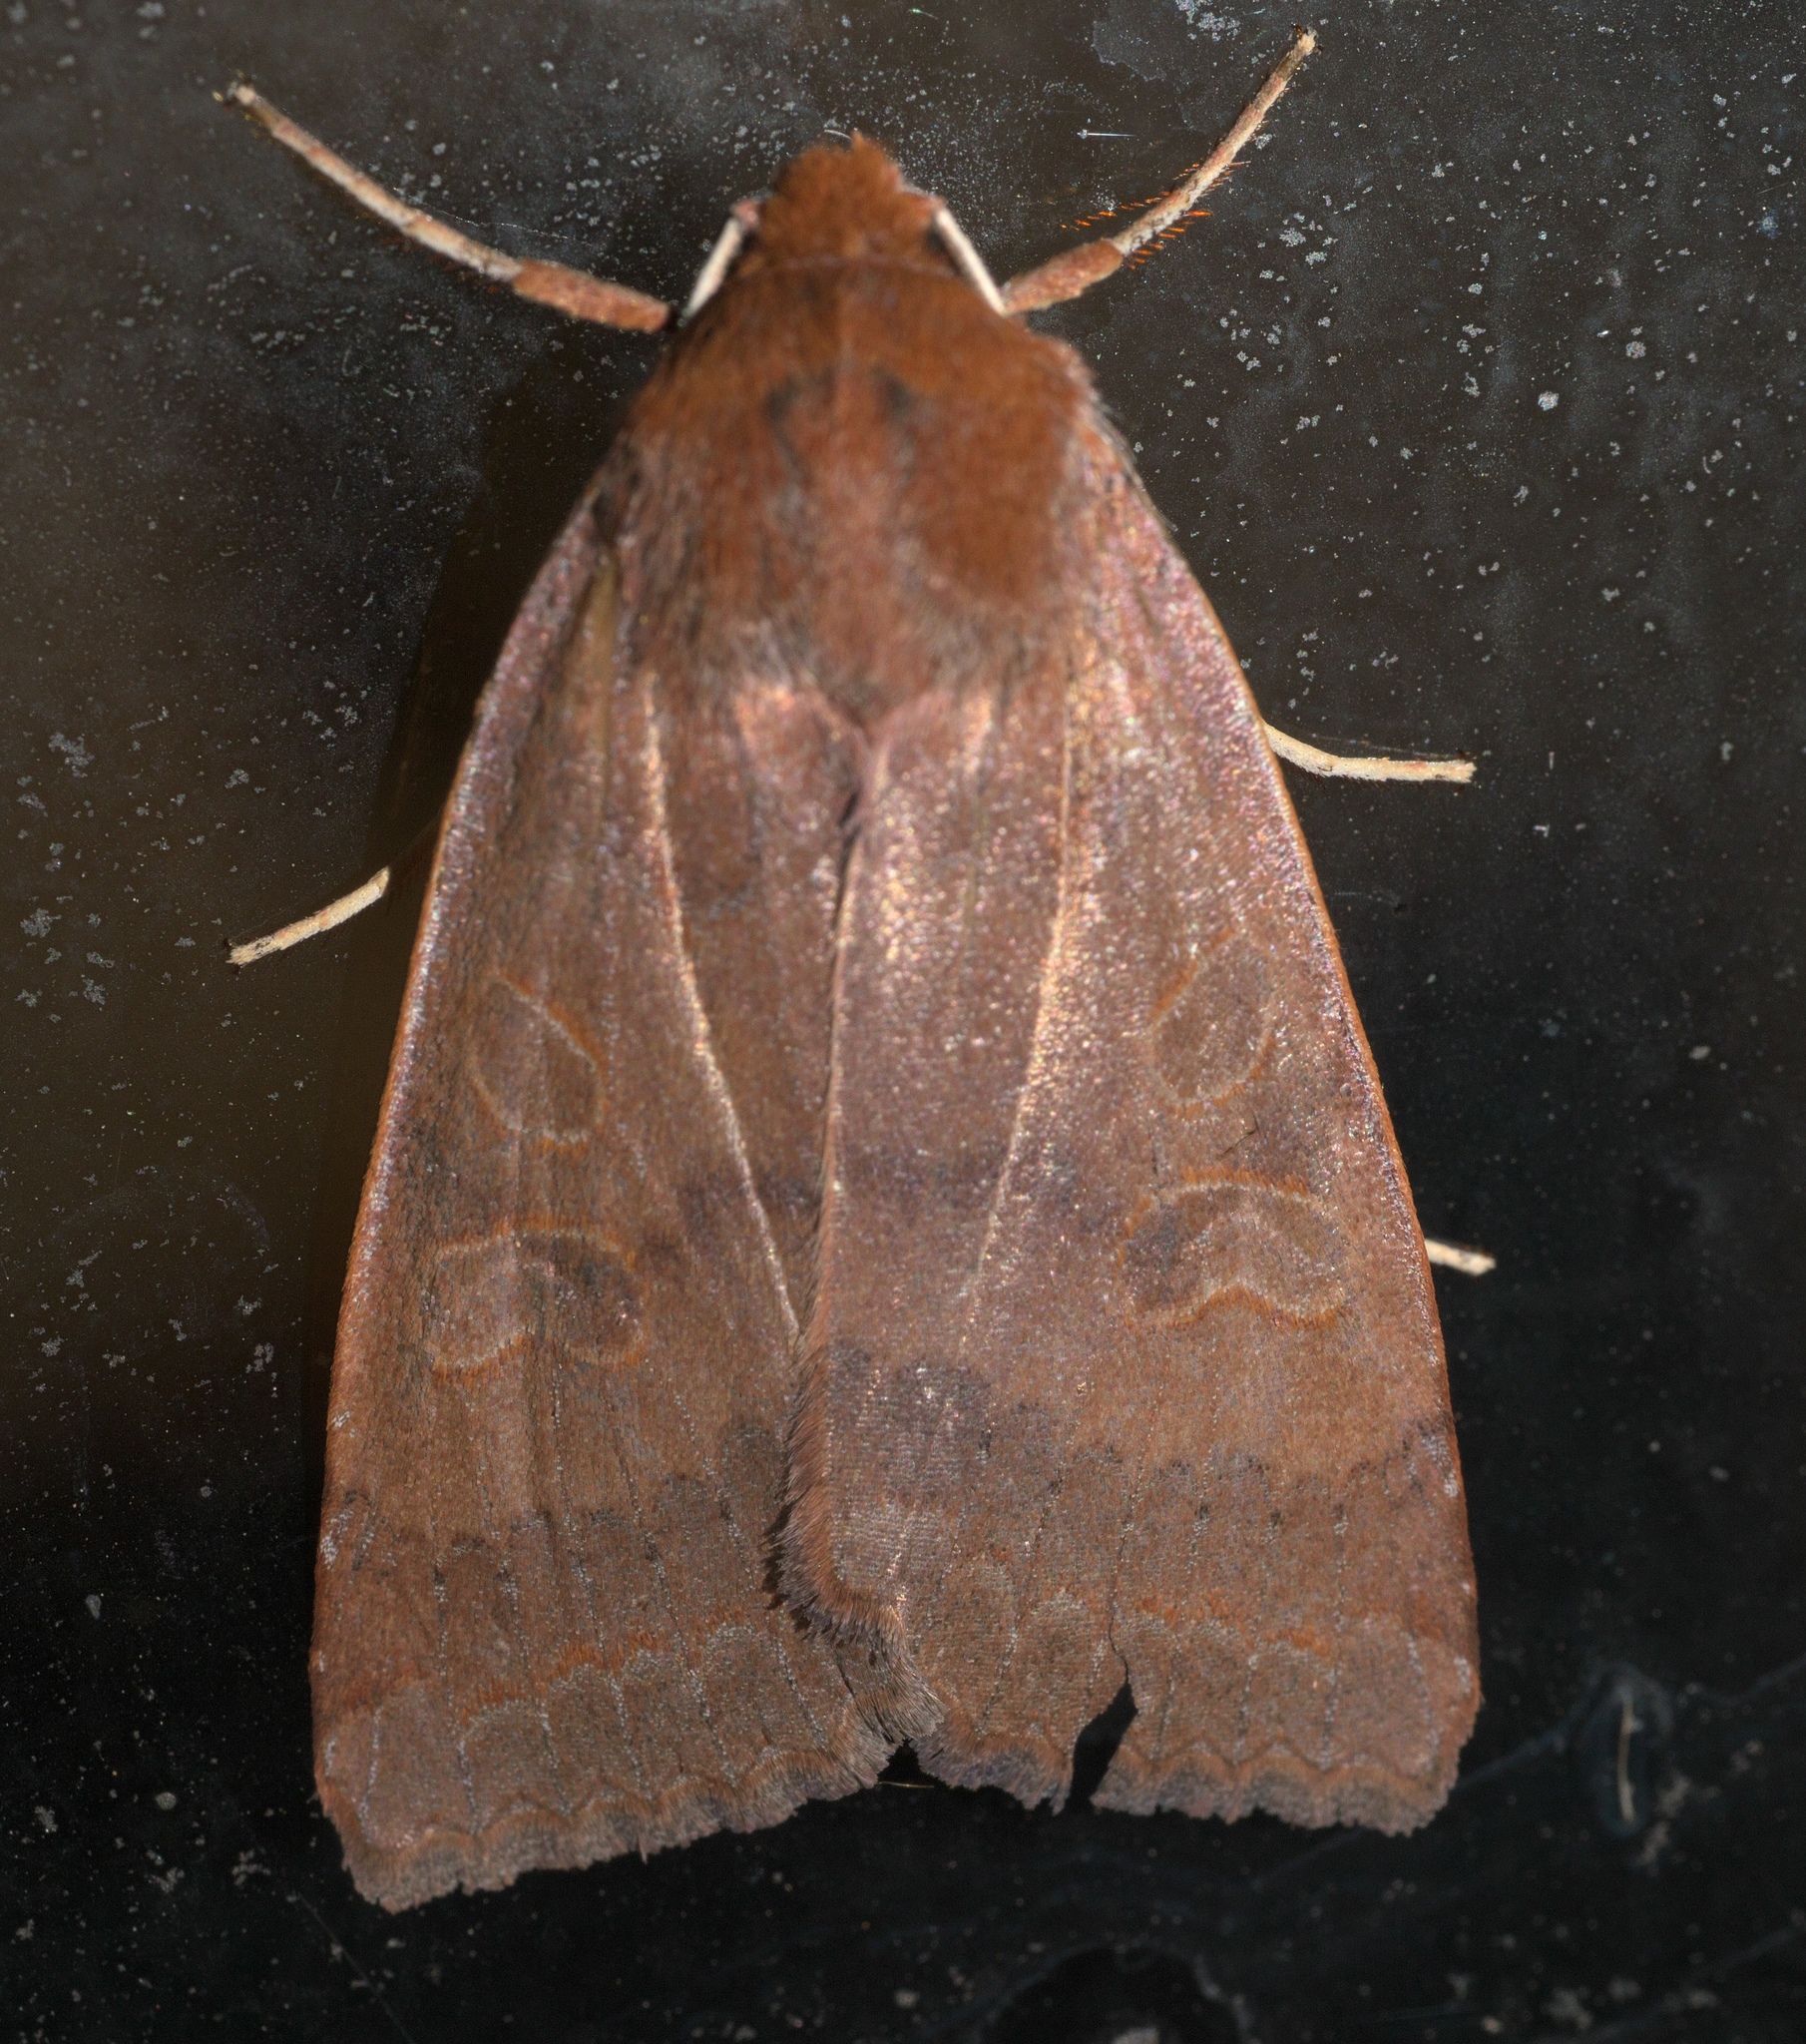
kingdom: Animalia
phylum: Arthropoda
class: Insecta
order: Lepidoptera
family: Noctuidae
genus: Metaxaglaea
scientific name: Metaxaglaea viatica
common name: Roadside sallow
